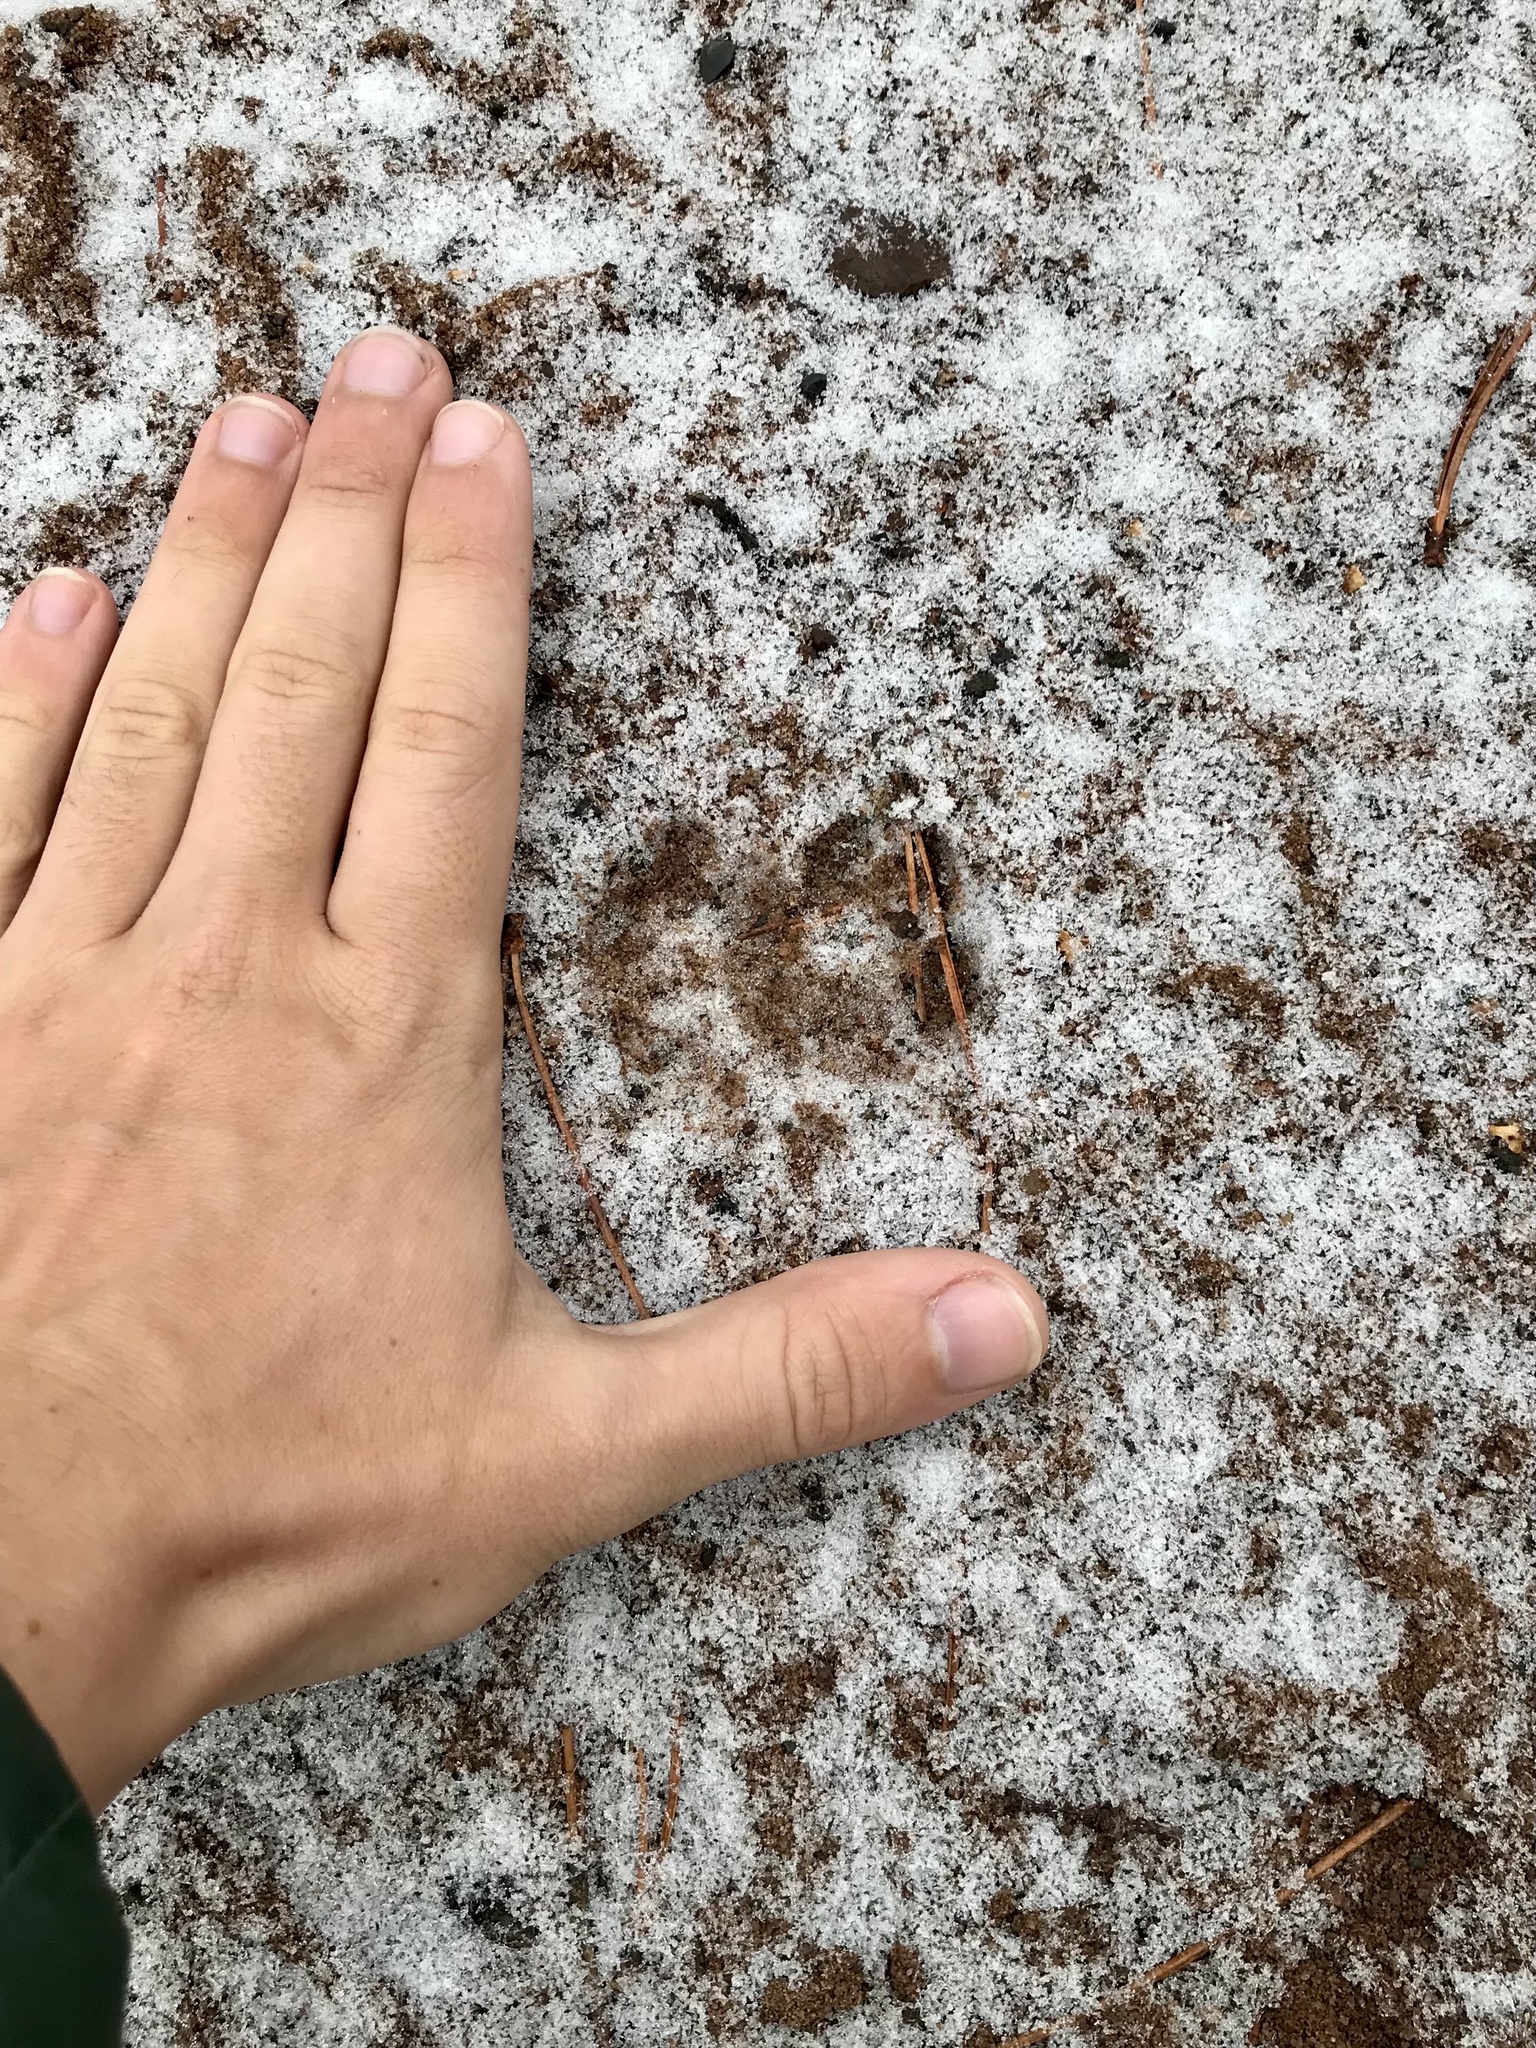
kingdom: Animalia
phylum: Chordata
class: Mammalia
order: Carnivora
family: Felidae
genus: Felis
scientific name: Felis catus
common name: Domestic cat
